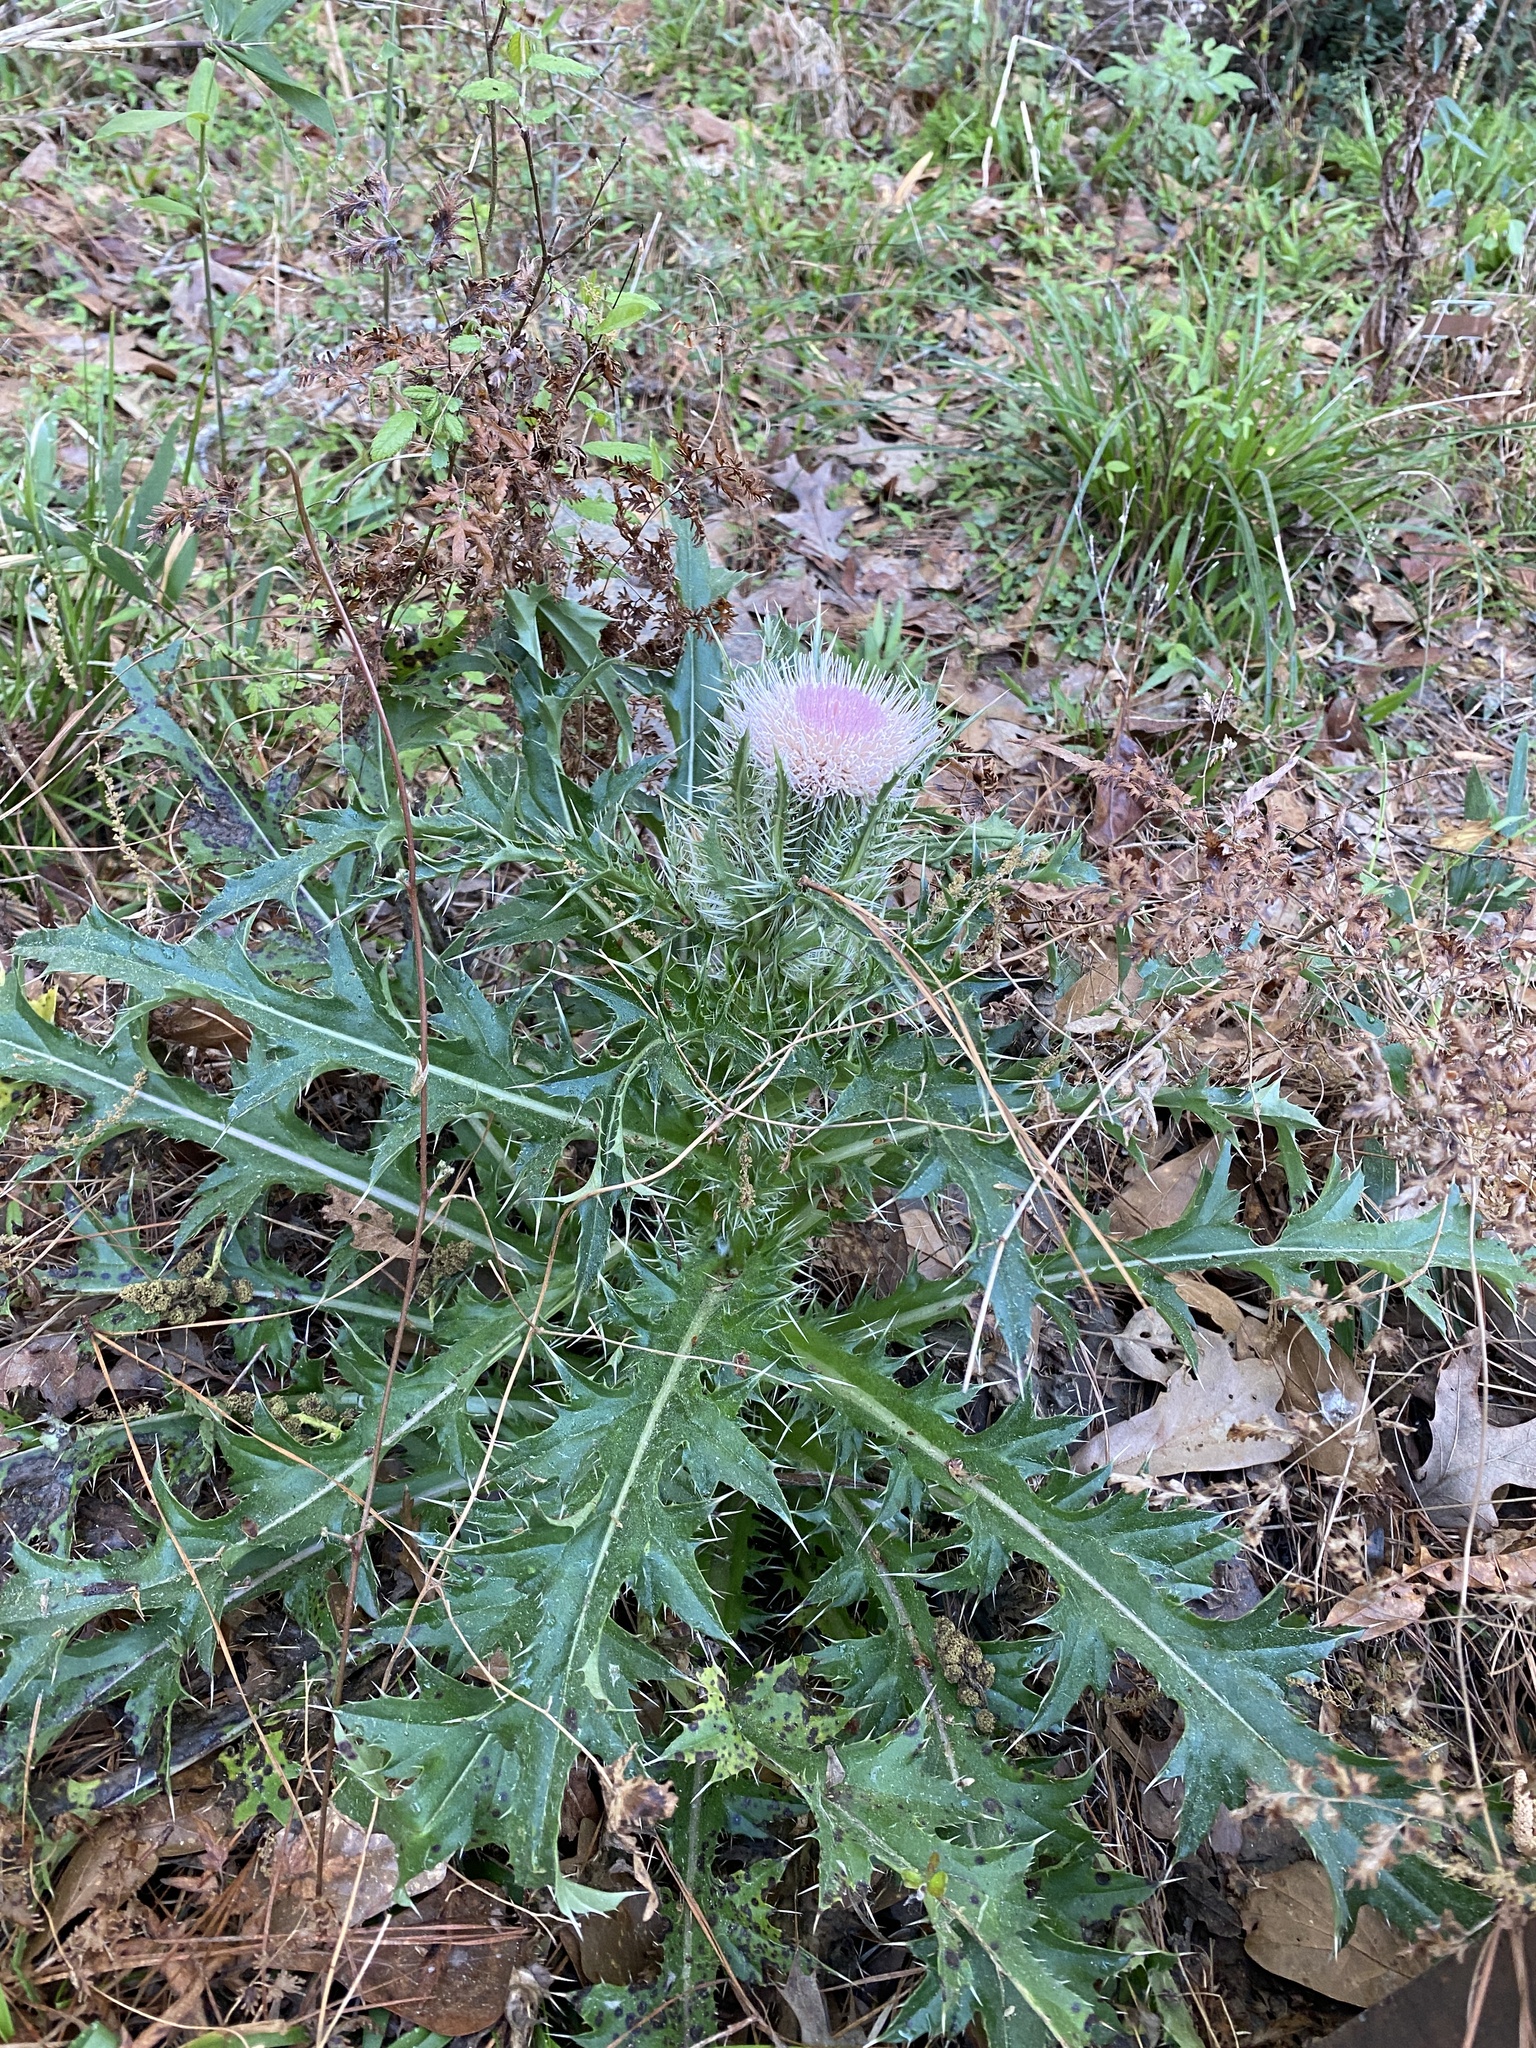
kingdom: Plantae
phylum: Tracheophyta
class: Magnoliopsida
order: Asterales
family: Asteraceae
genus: Cirsium
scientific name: Cirsium horridulum
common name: Bristly thistle
